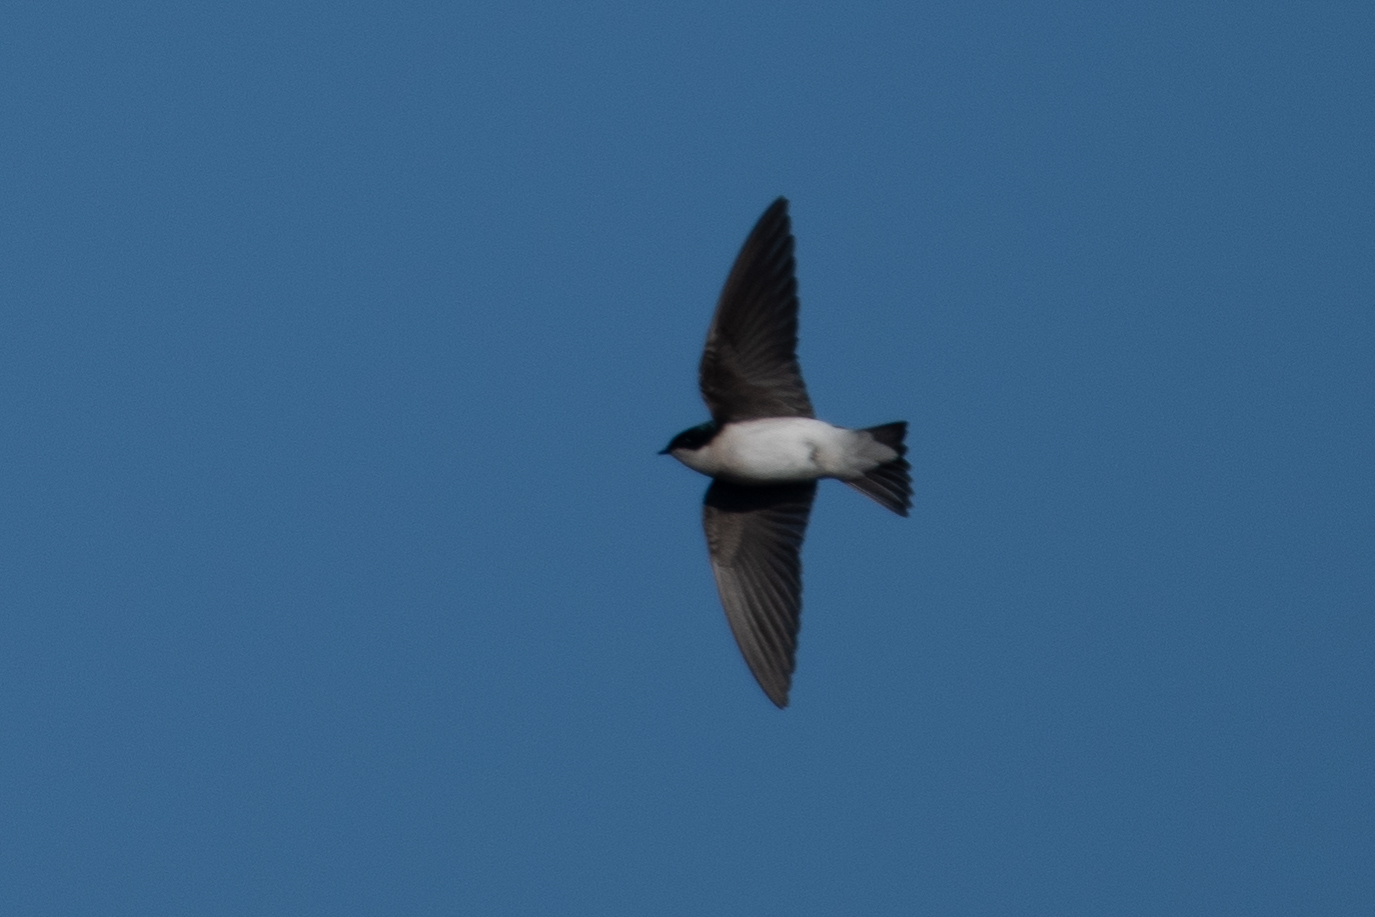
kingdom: Animalia
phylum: Chordata
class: Aves
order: Passeriformes
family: Hirundinidae
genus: Tachycineta
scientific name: Tachycineta bicolor
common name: Tree swallow
